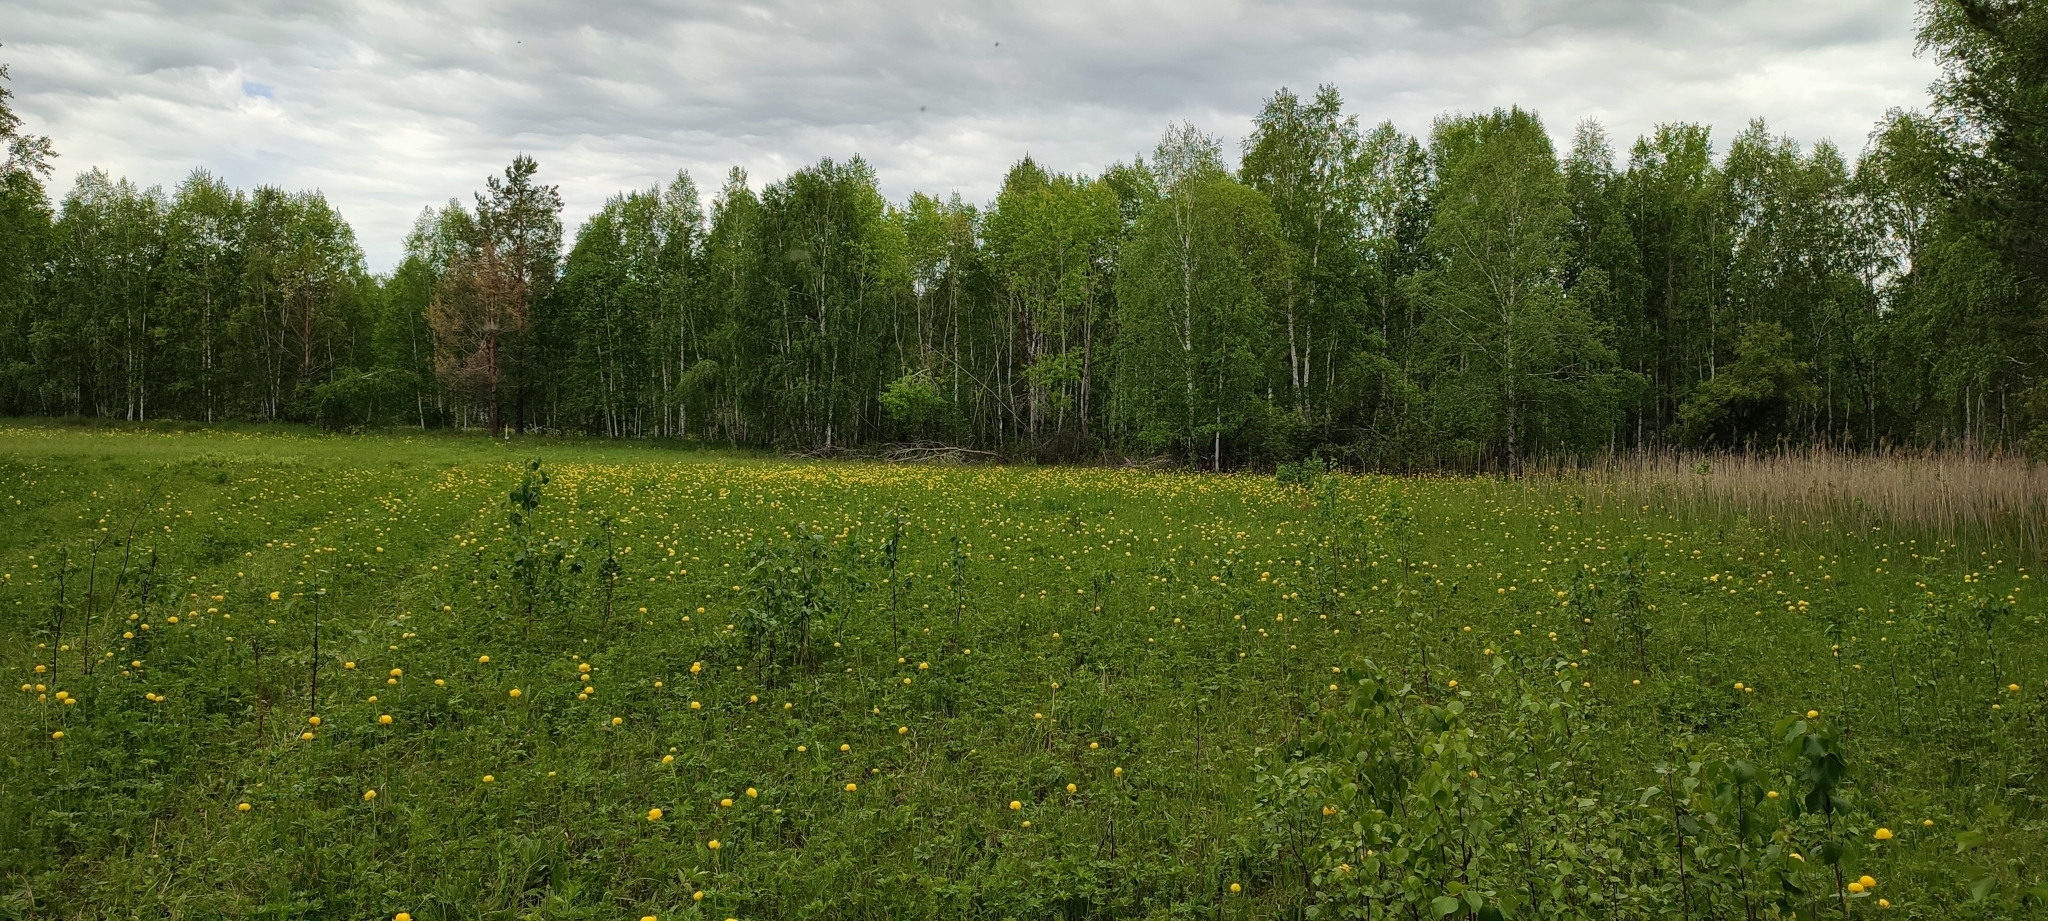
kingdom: Plantae
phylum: Tracheophyta
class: Magnoliopsida
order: Ranunculales
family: Ranunculaceae
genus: Trollius
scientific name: Trollius europaeus
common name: European globeflower
